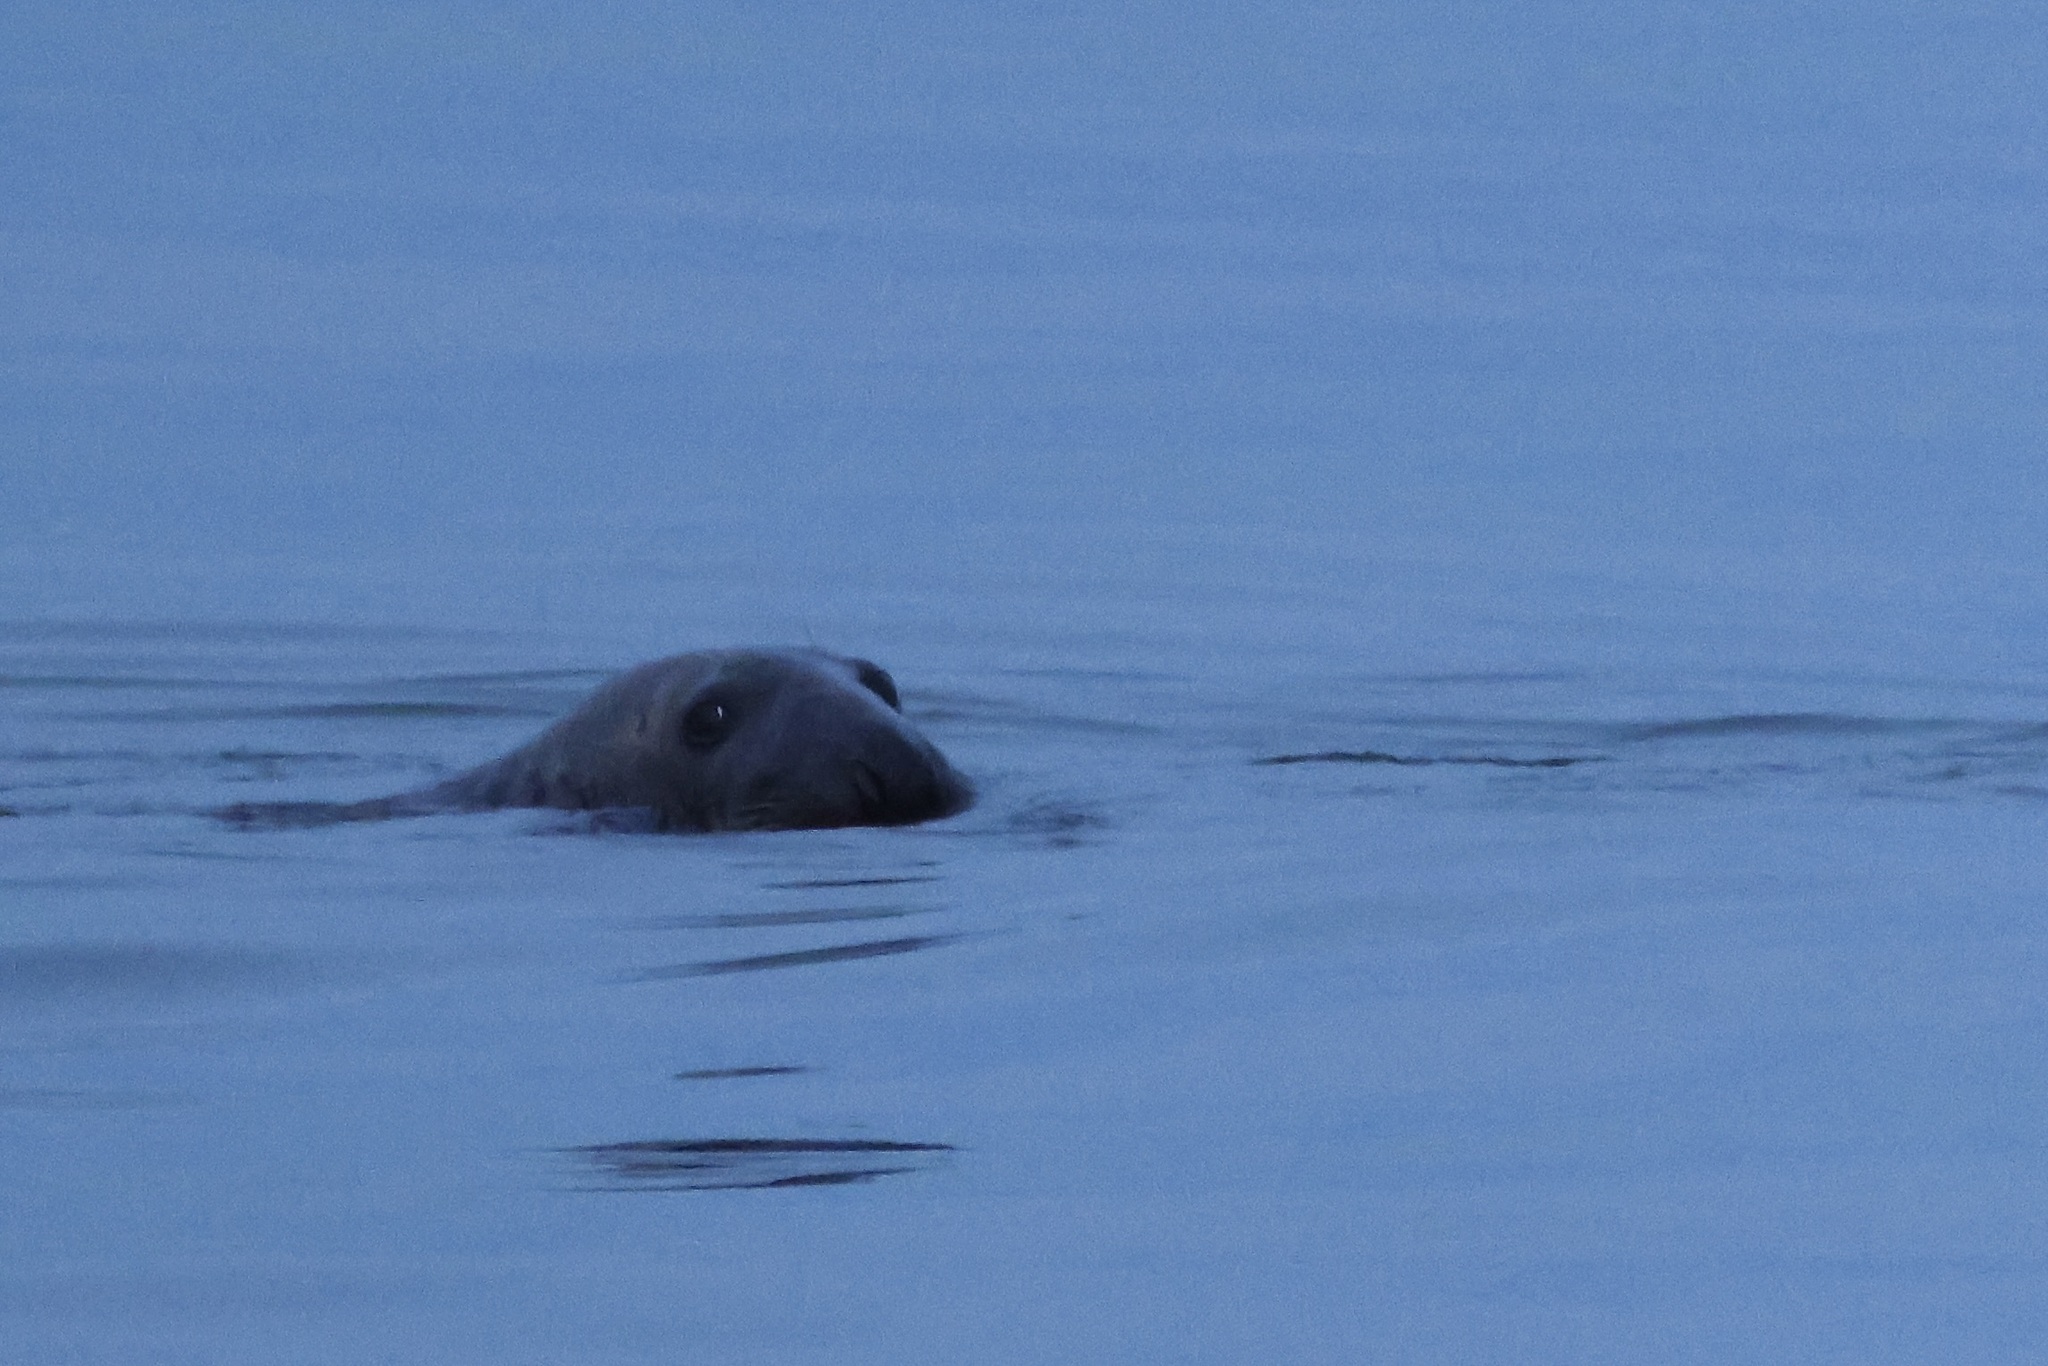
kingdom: Animalia
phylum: Chordata
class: Mammalia
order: Carnivora
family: Phocidae
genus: Halichoerus
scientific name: Halichoerus grypus
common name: Grey seal
